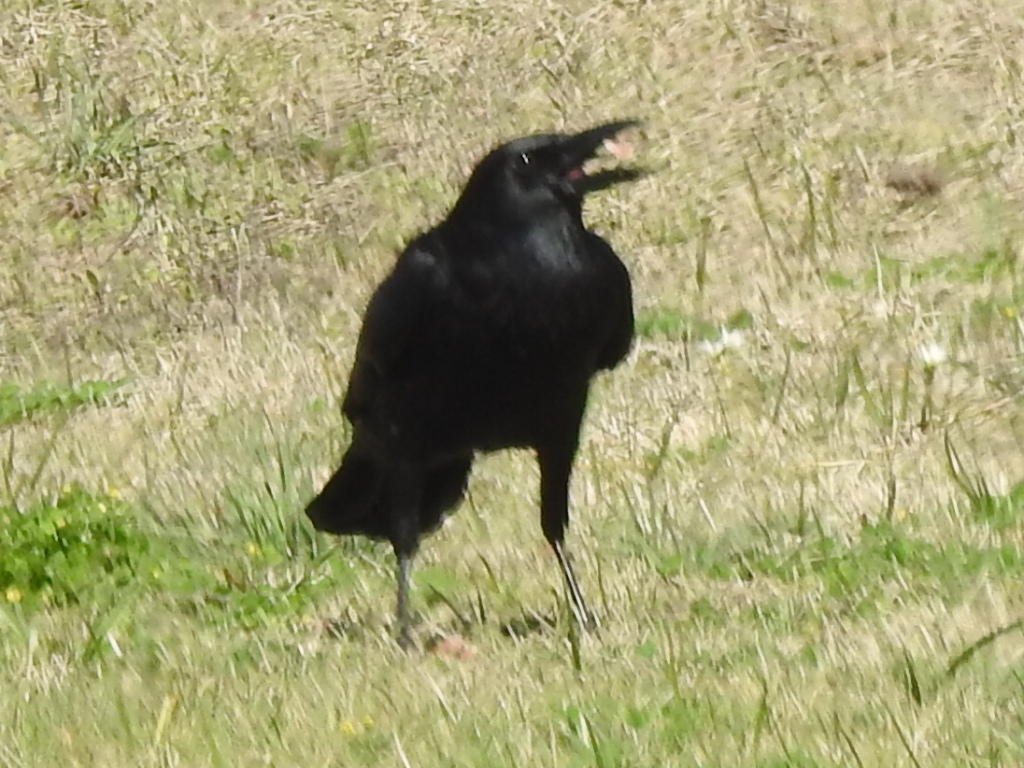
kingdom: Animalia
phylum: Chordata
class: Aves
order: Passeriformes
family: Corvidae
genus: Corvus
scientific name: Corvus brachyrhynchos
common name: American crow
